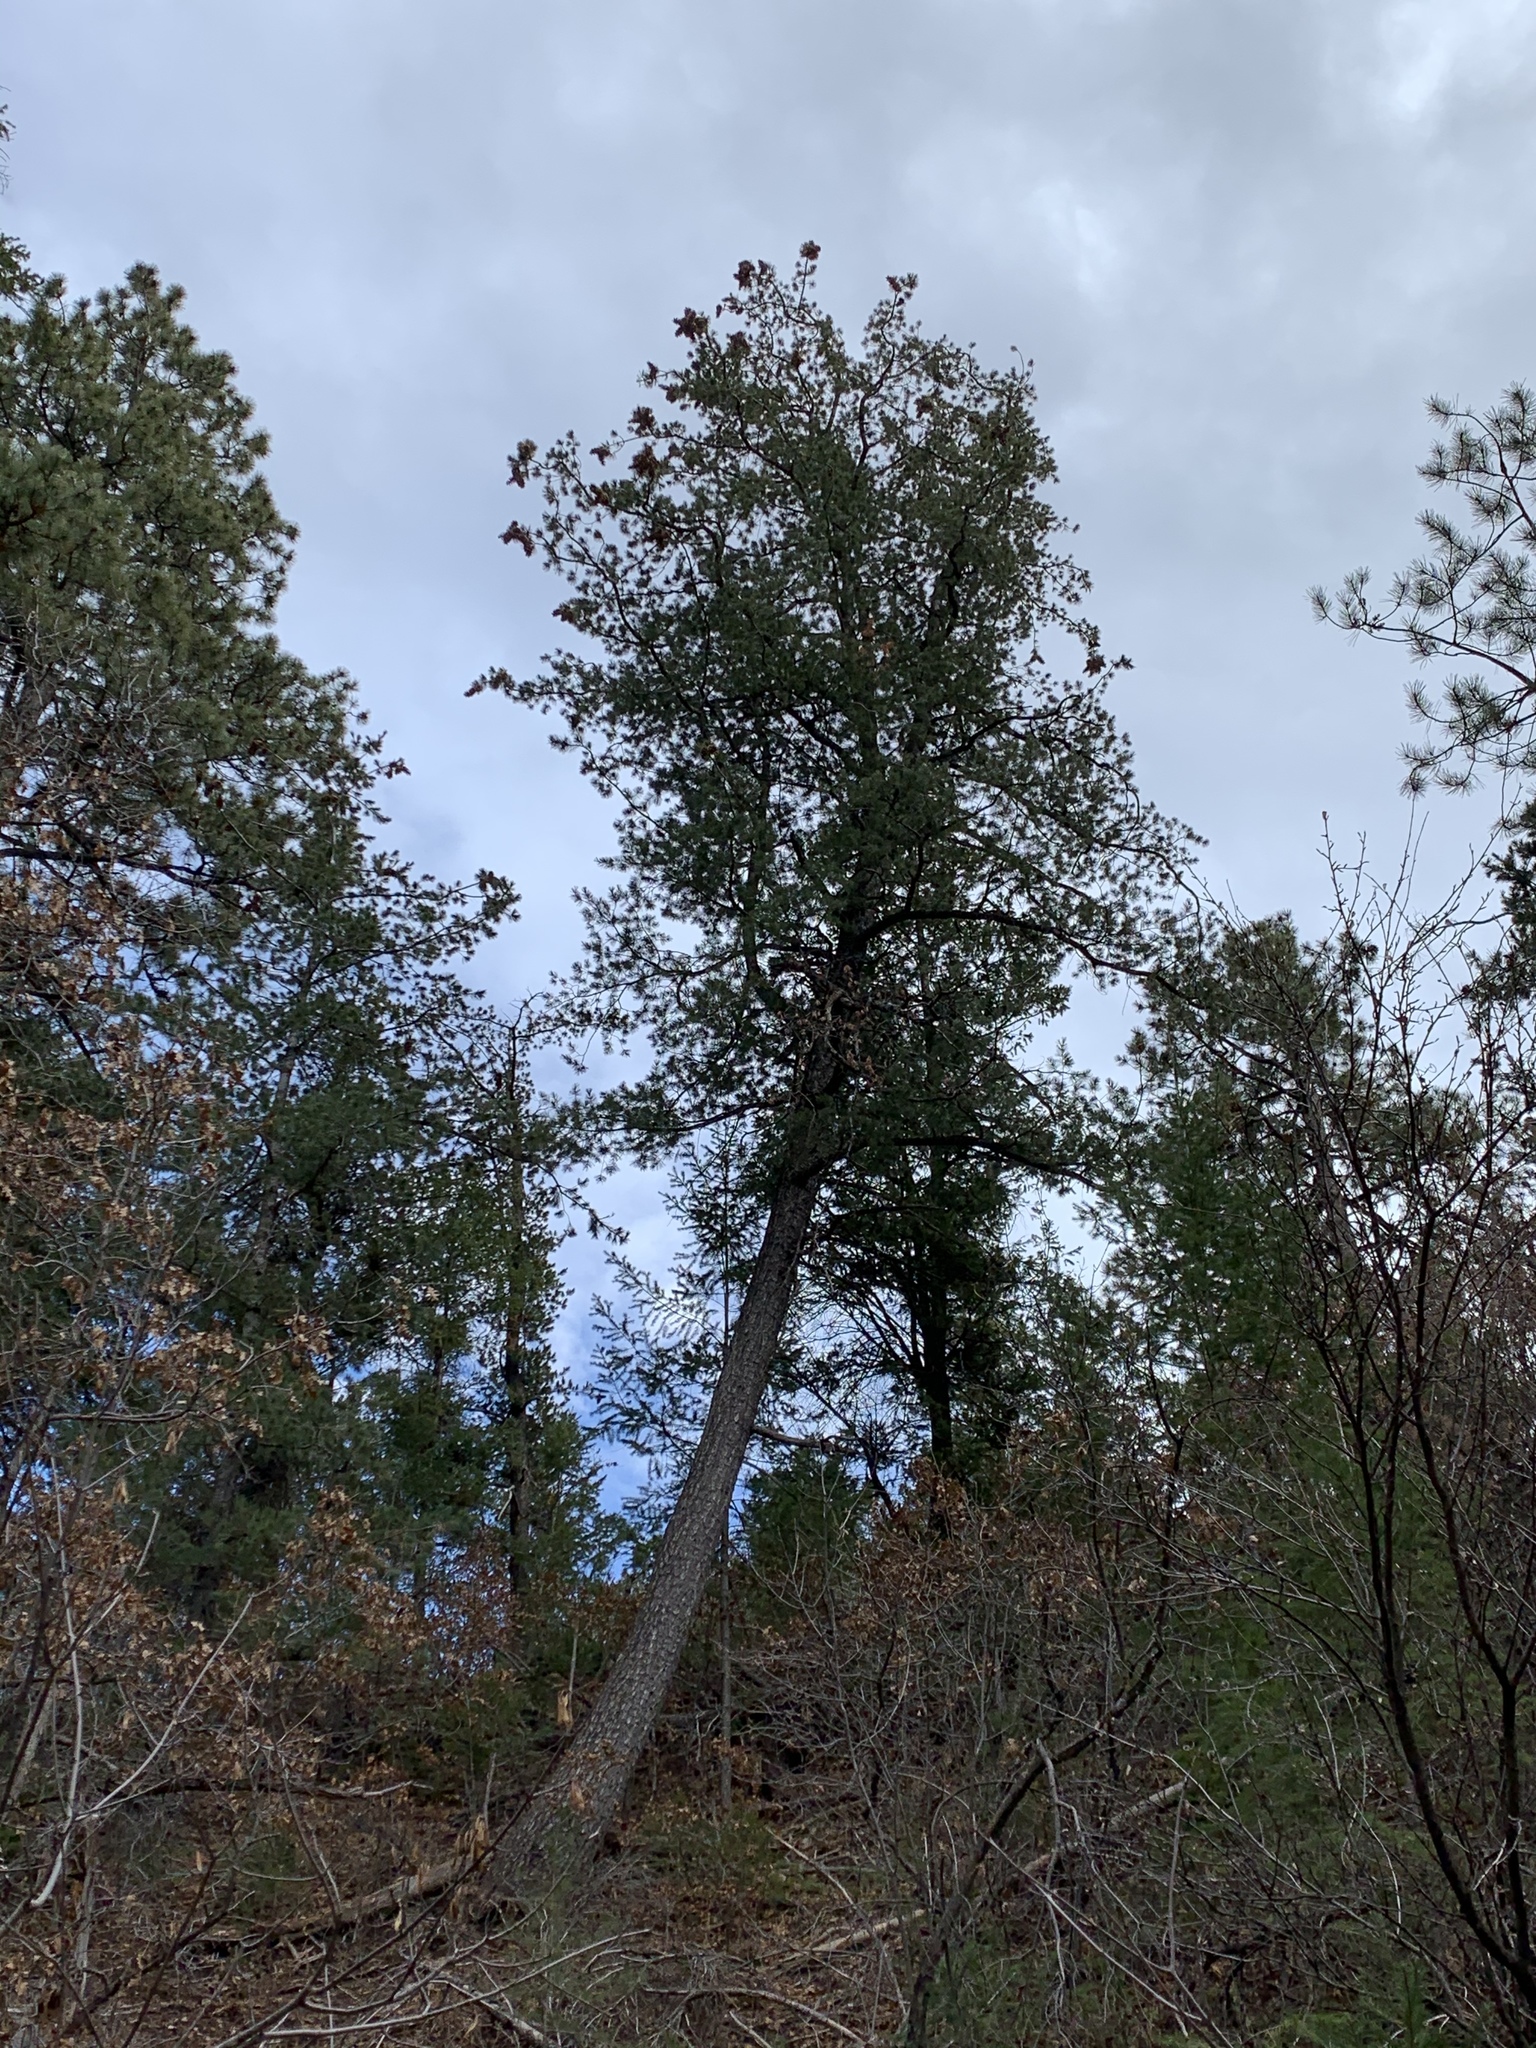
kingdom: Plantae
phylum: Tracheophyta
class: Pinopsida
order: Pinales
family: Pinaceae
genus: Pinus
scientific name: Pinus strobiformis
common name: Southwestern white pine
